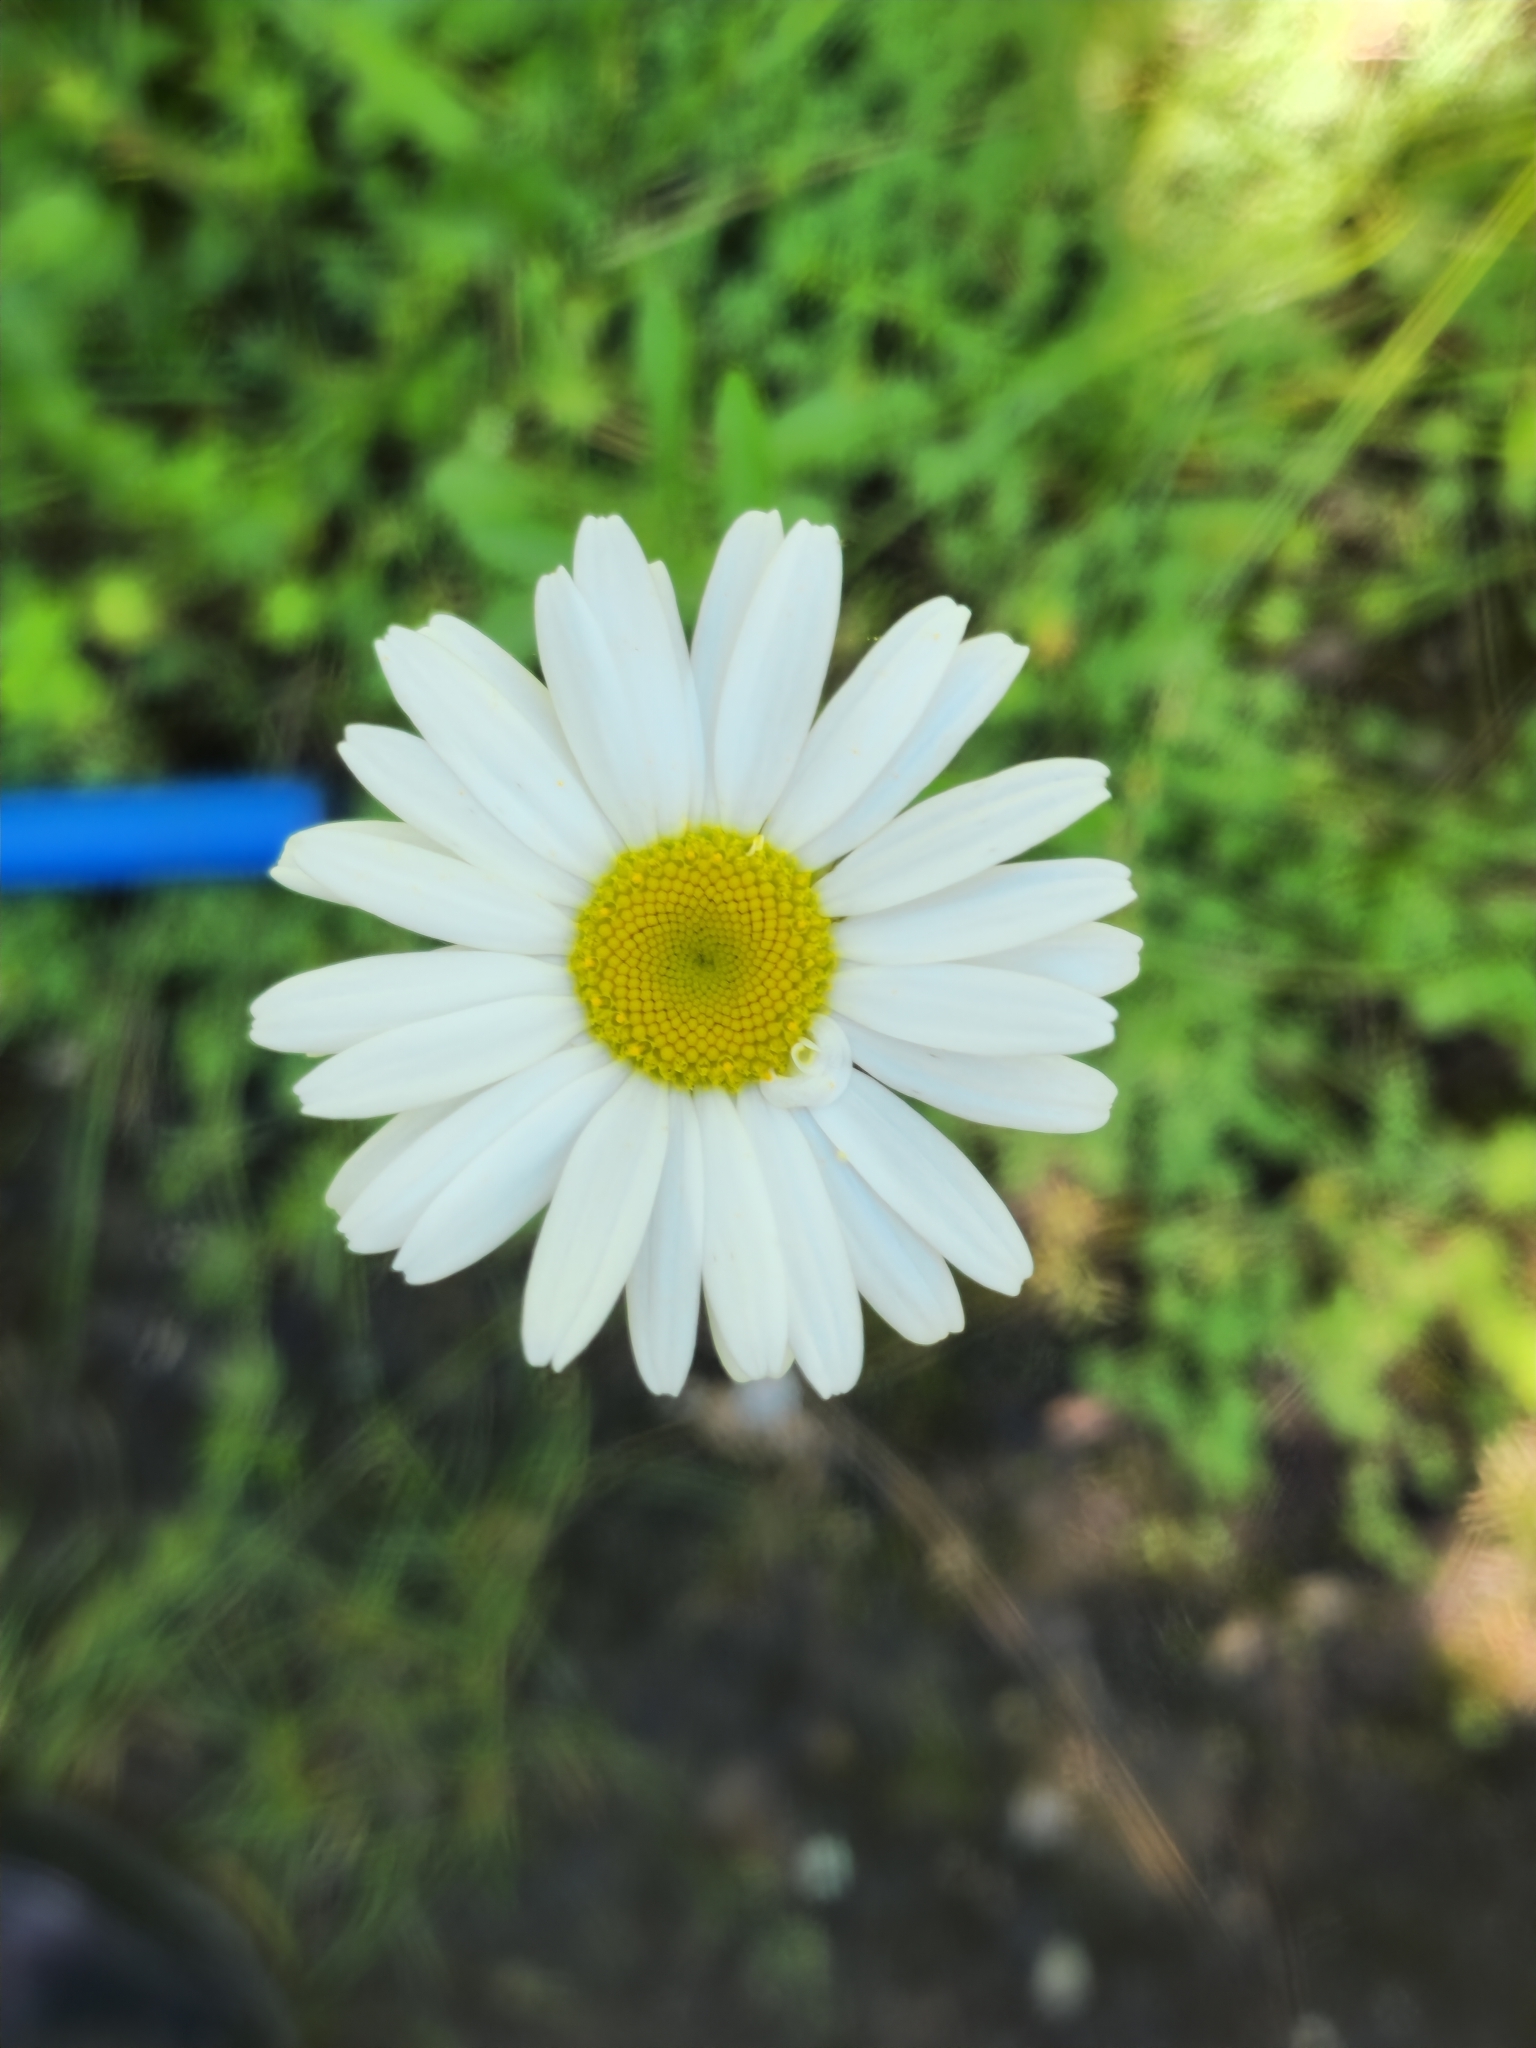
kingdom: Plantae
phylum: Tracheophyta
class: Magnoliopsida
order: Asterales
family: Asteraceae
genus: Leucanthemum
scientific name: Leucanthemum vulgare
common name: Oxeye daisy
